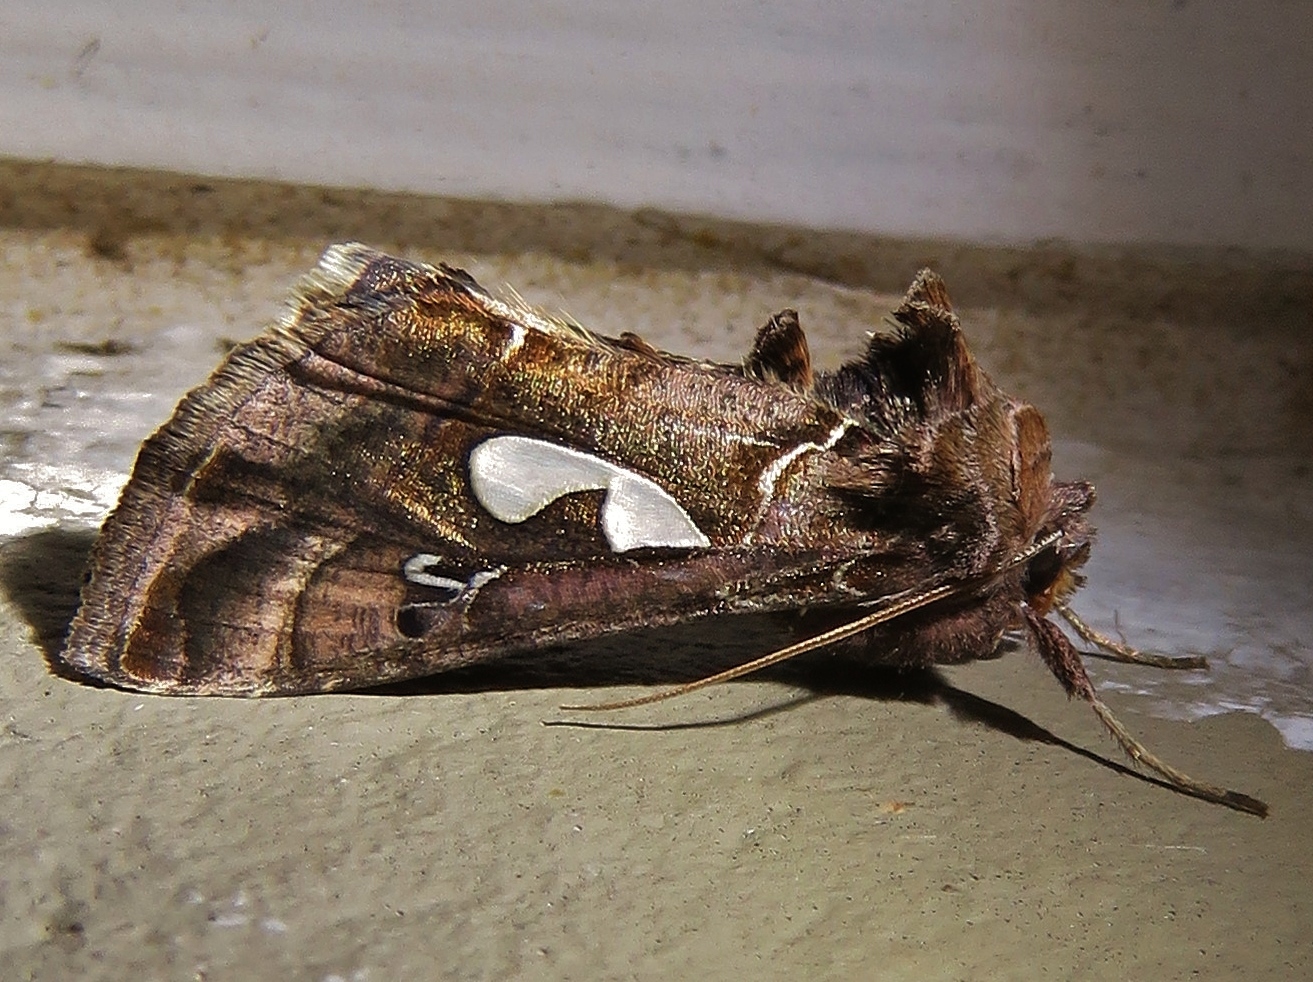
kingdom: Animalia
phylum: Arthropoda
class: Insecta
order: Lepidoptera
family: Noctuidae
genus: Megalographa
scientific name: Megalographa biloba
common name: Cutworm
